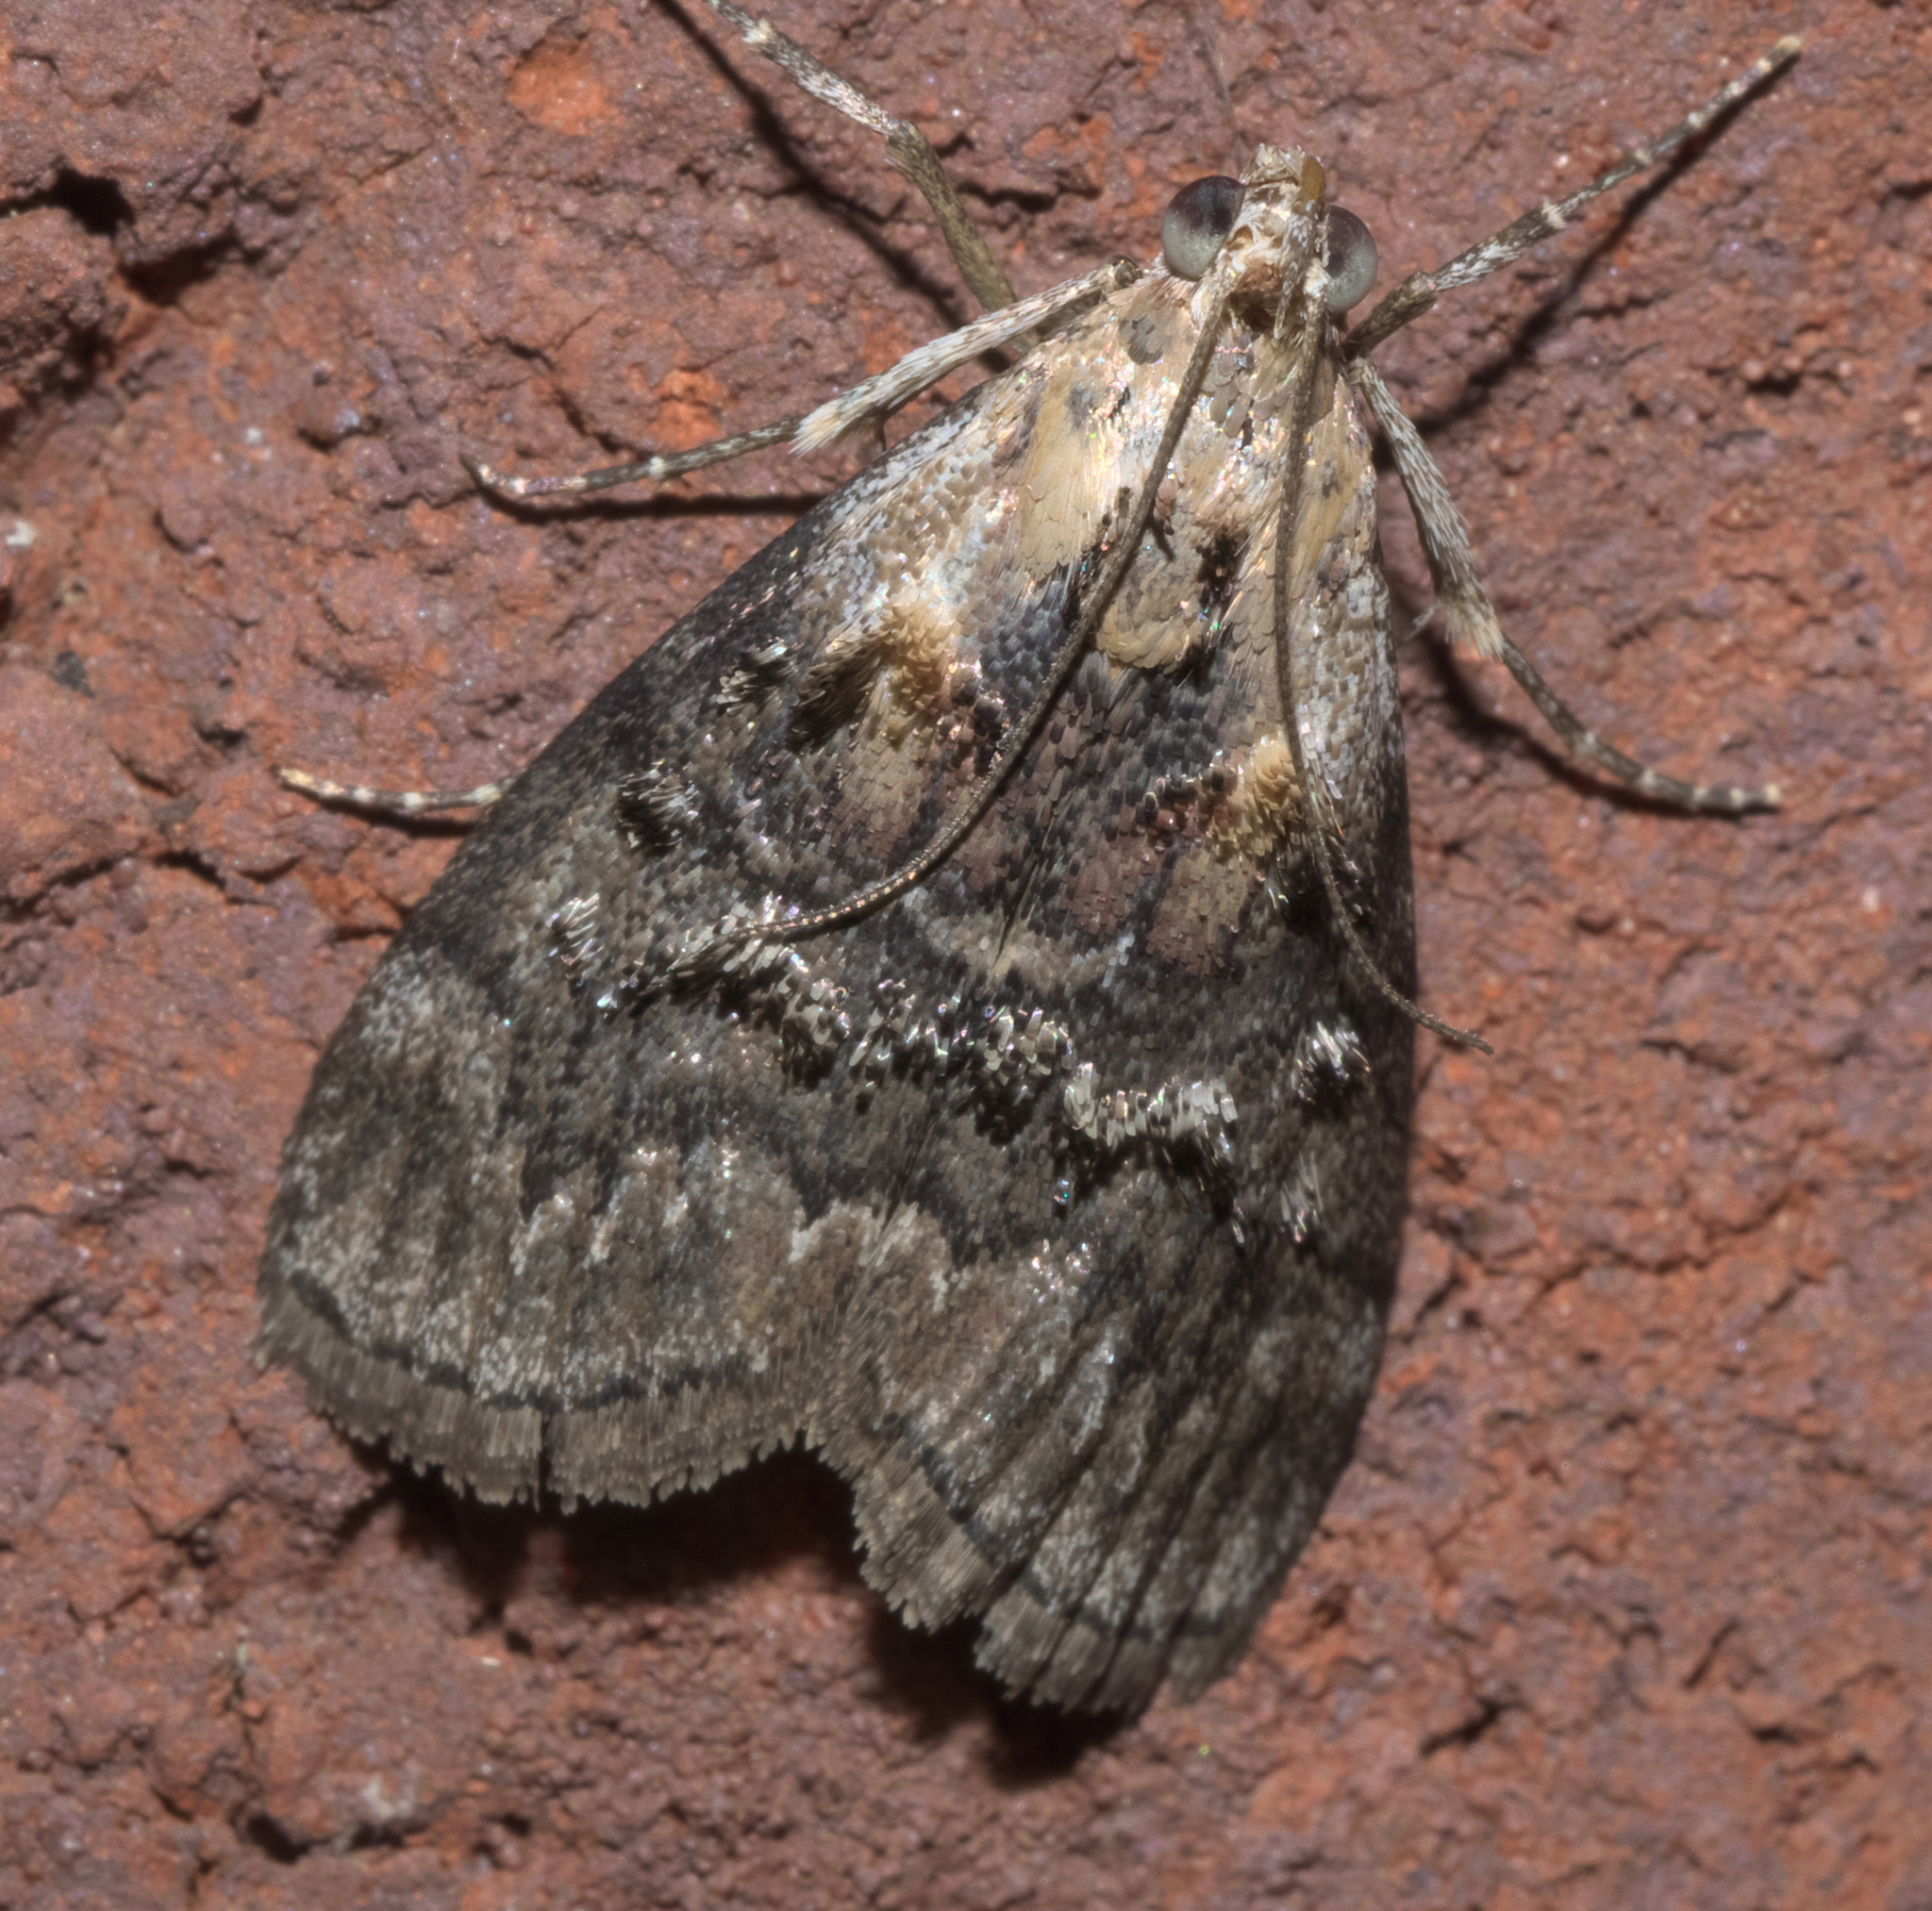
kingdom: Animalia
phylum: Arthropoda
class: Insecta
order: Lepidoptera
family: Pyralidae
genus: Pococera
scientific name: Pococera expandens
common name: Striped oak webworm moth
